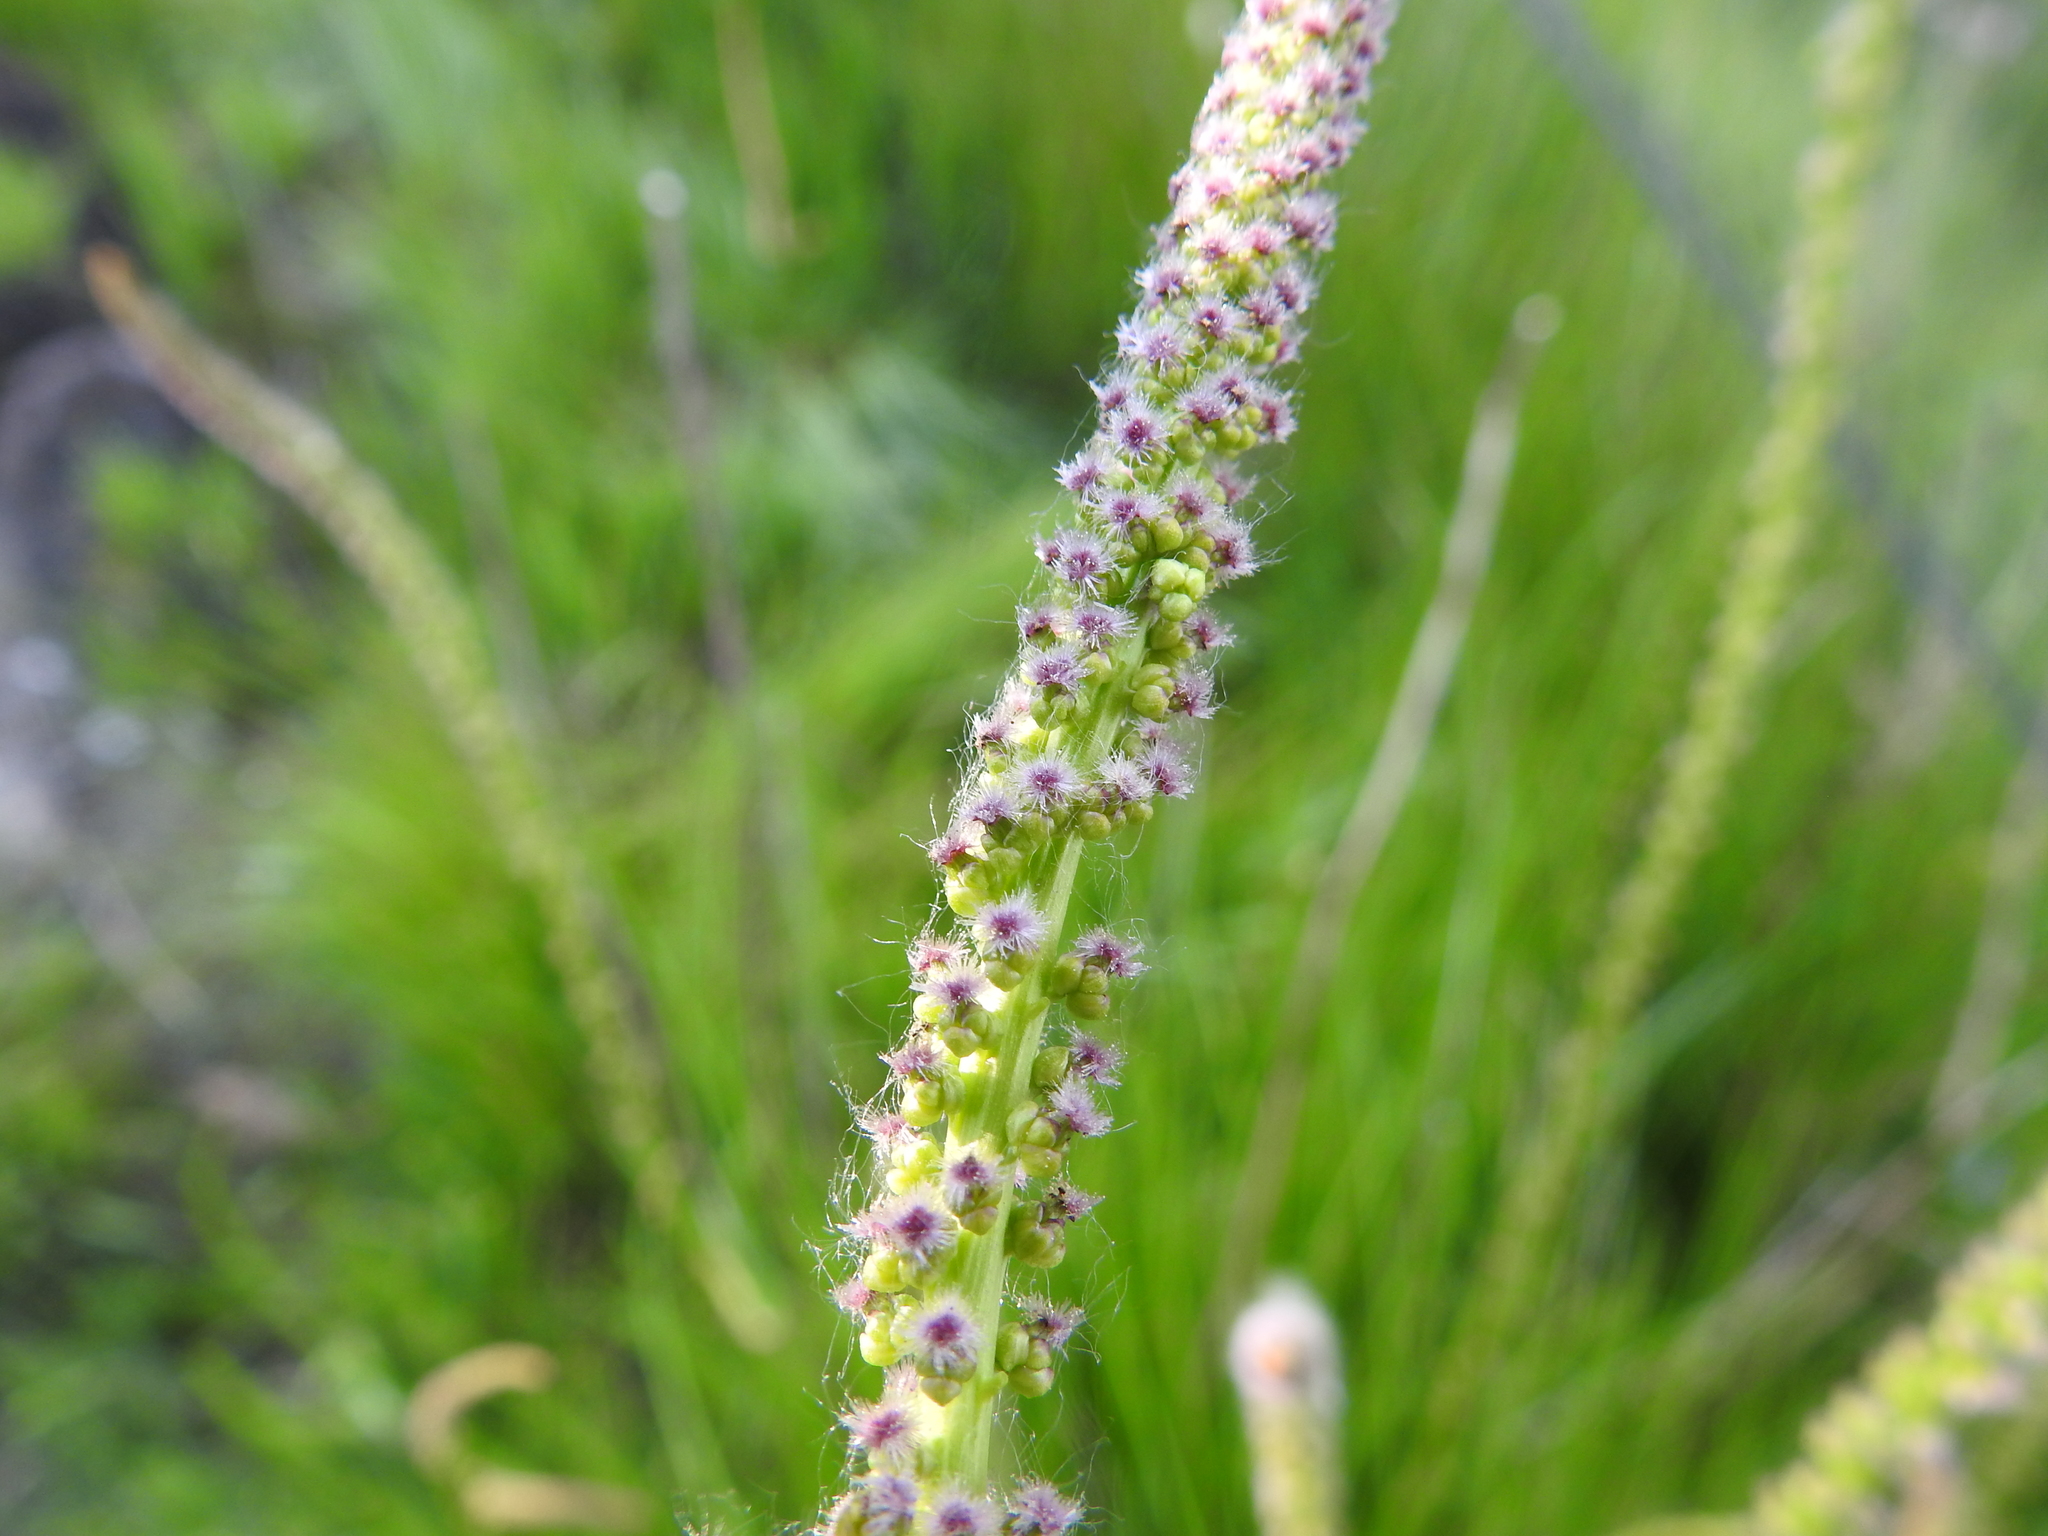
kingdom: Plantae
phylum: Tracheophyta
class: Liliopsida
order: Alismatales
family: Juncaginaceae
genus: Triglochin
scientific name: Triglochin maritima
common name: Sea arrowgrass
